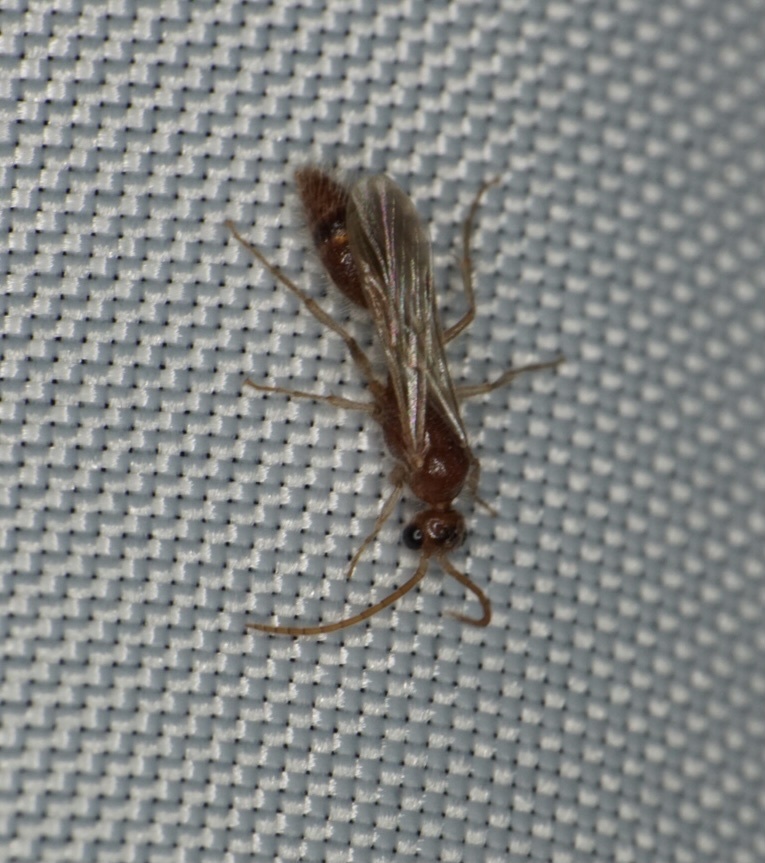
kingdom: Animalia
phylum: Arthropoda
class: Insecta
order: Hymenoptera
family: Chyphotidae
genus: Chyphotes
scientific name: Chyphotes
